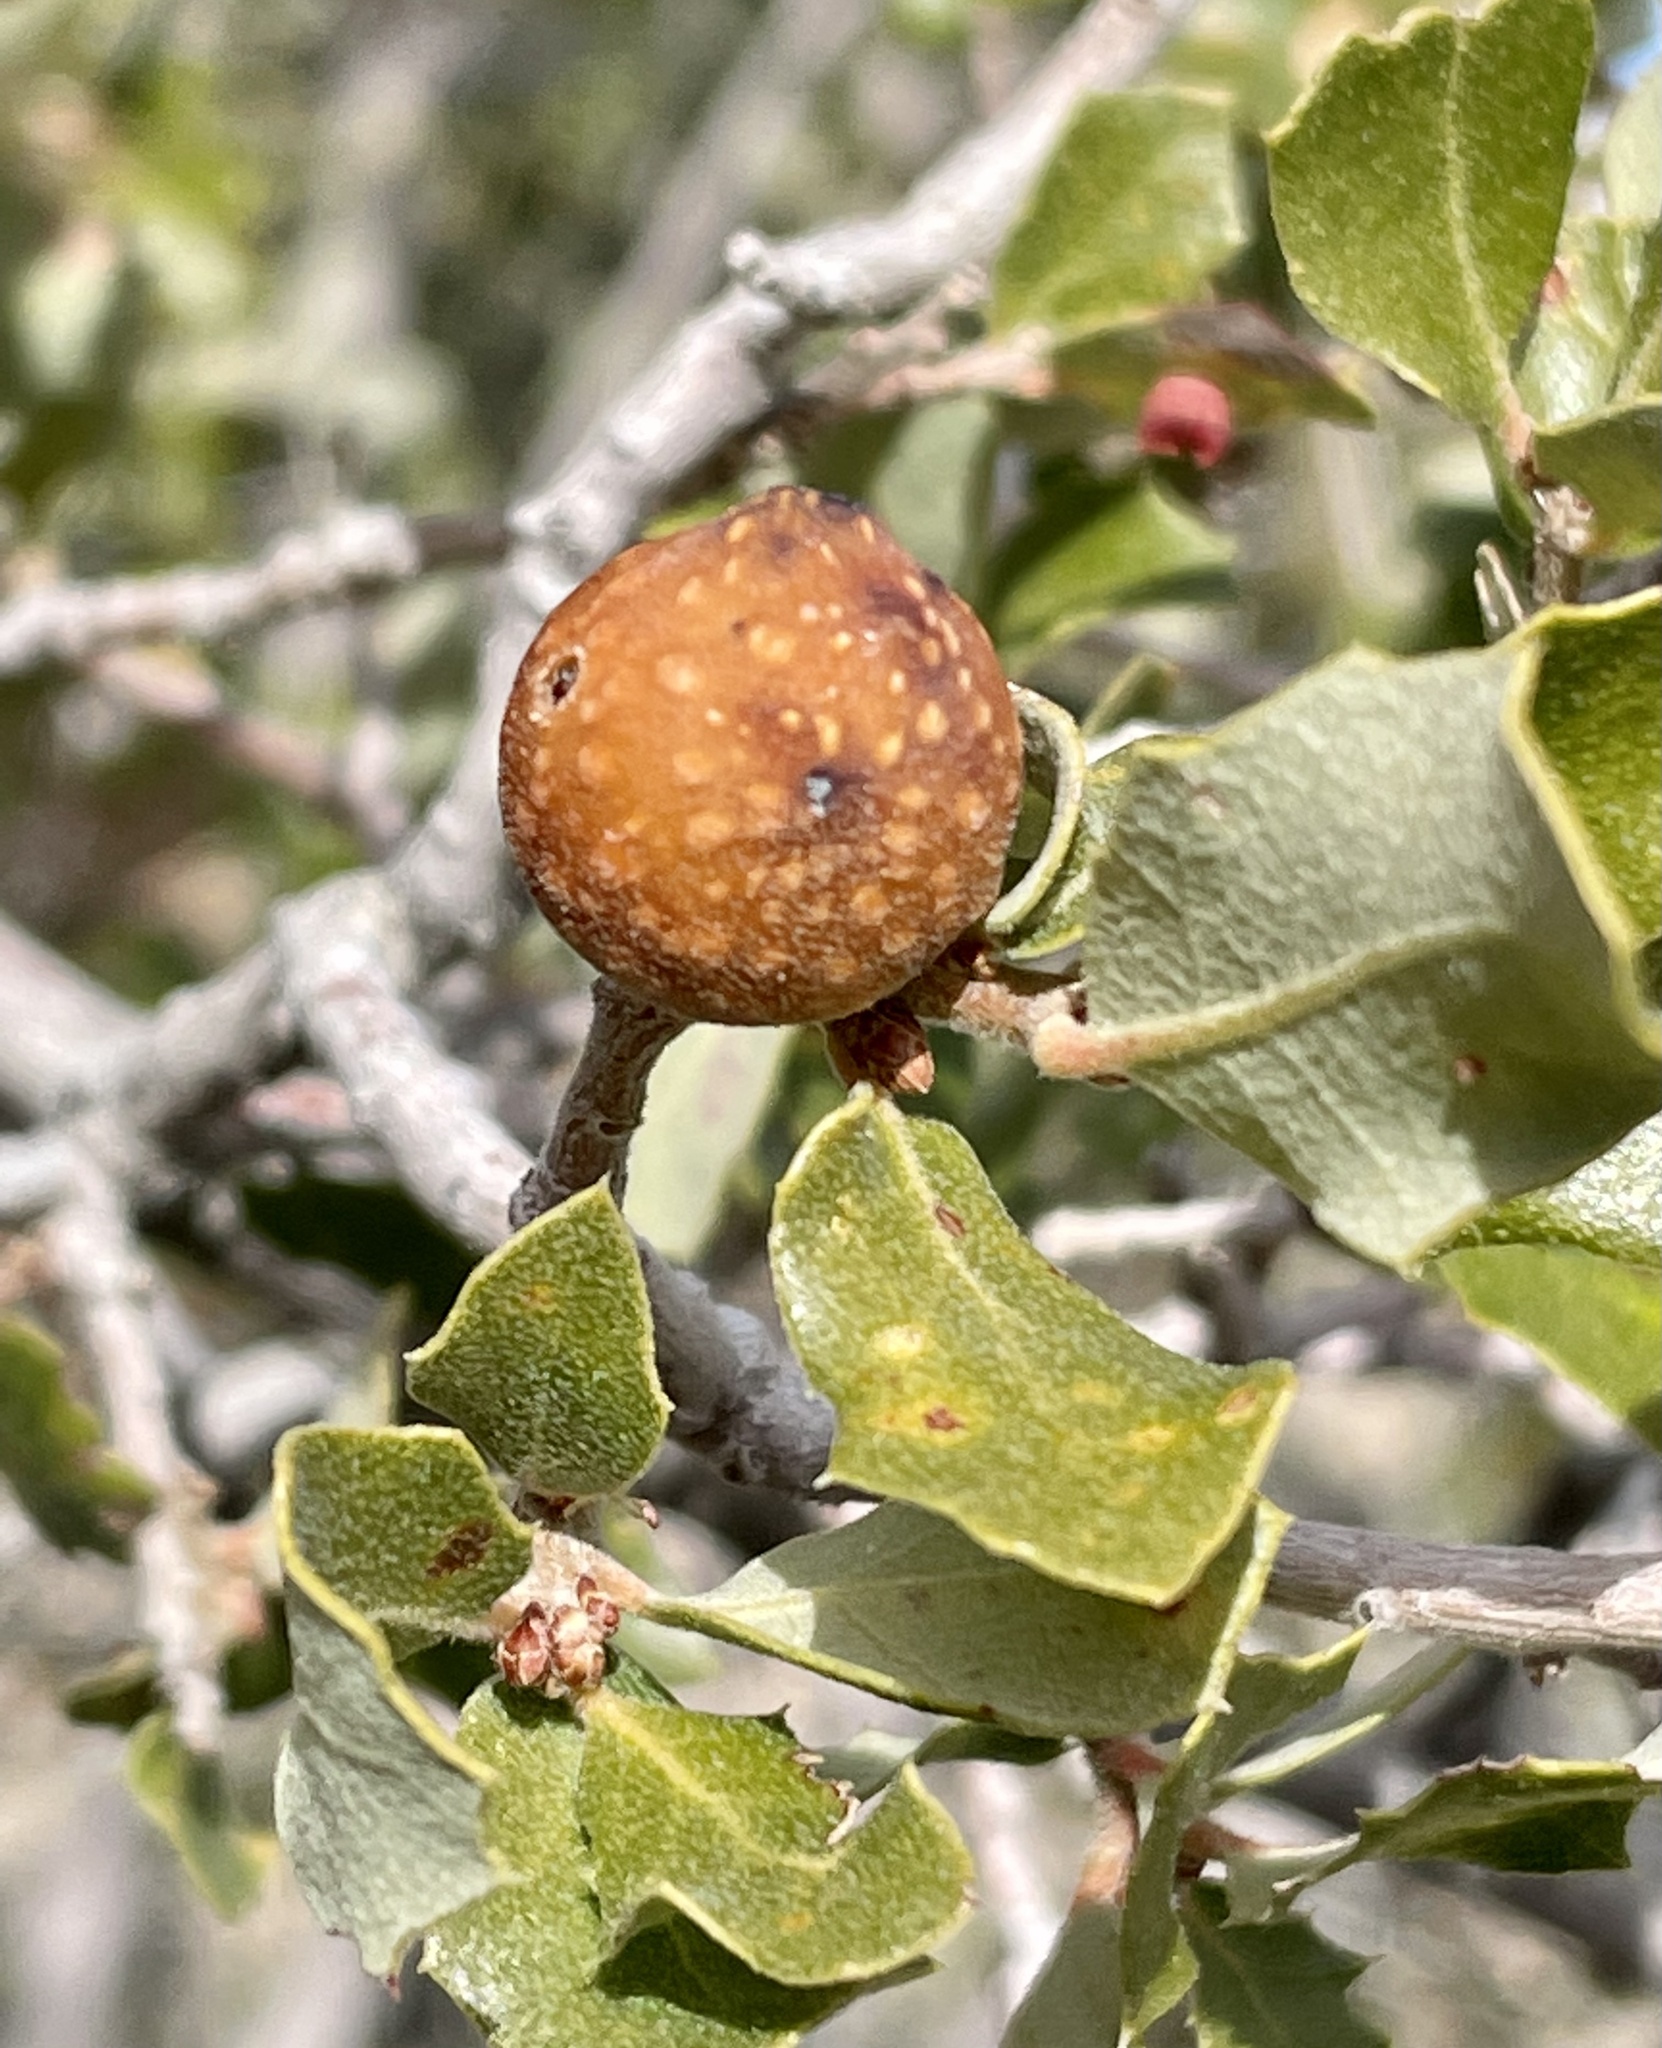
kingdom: Animalia
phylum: Arthropoda
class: Insecta
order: Hymenoptera
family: Cynipidae
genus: Burnettweldia
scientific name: Burnettweldia
